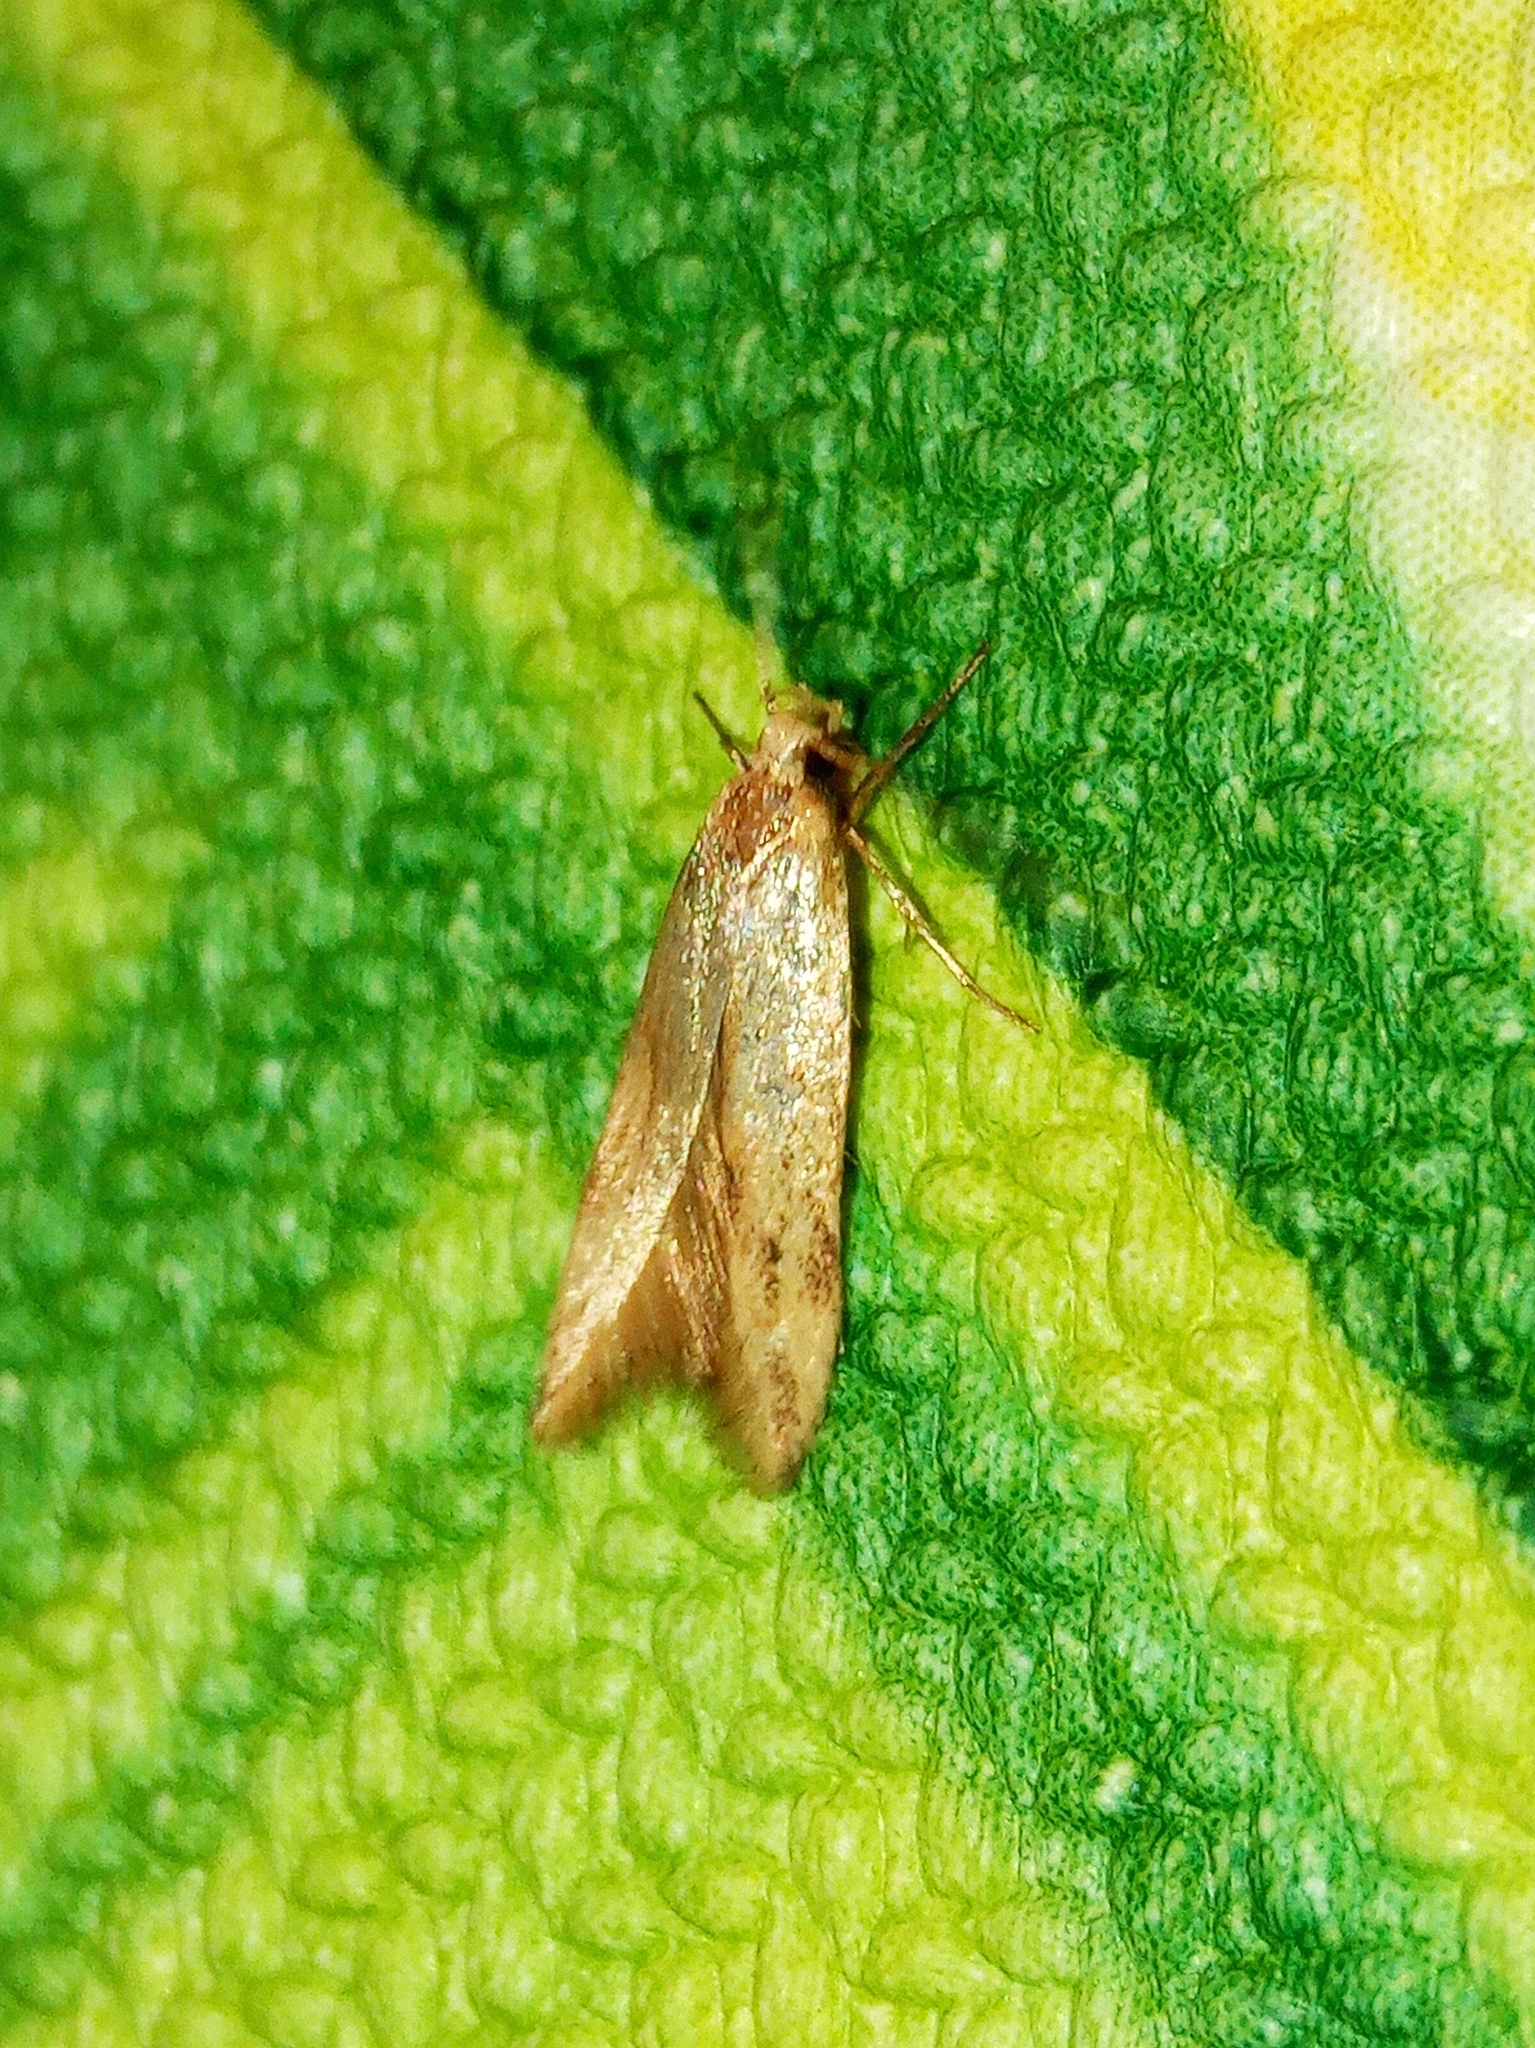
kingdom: Animalia
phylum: Arthropoda
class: Insecta
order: Lepidoptera
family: Gelechiidae
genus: Sitotroga
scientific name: Sitotroga cerealella
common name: Angoumois grain moth
